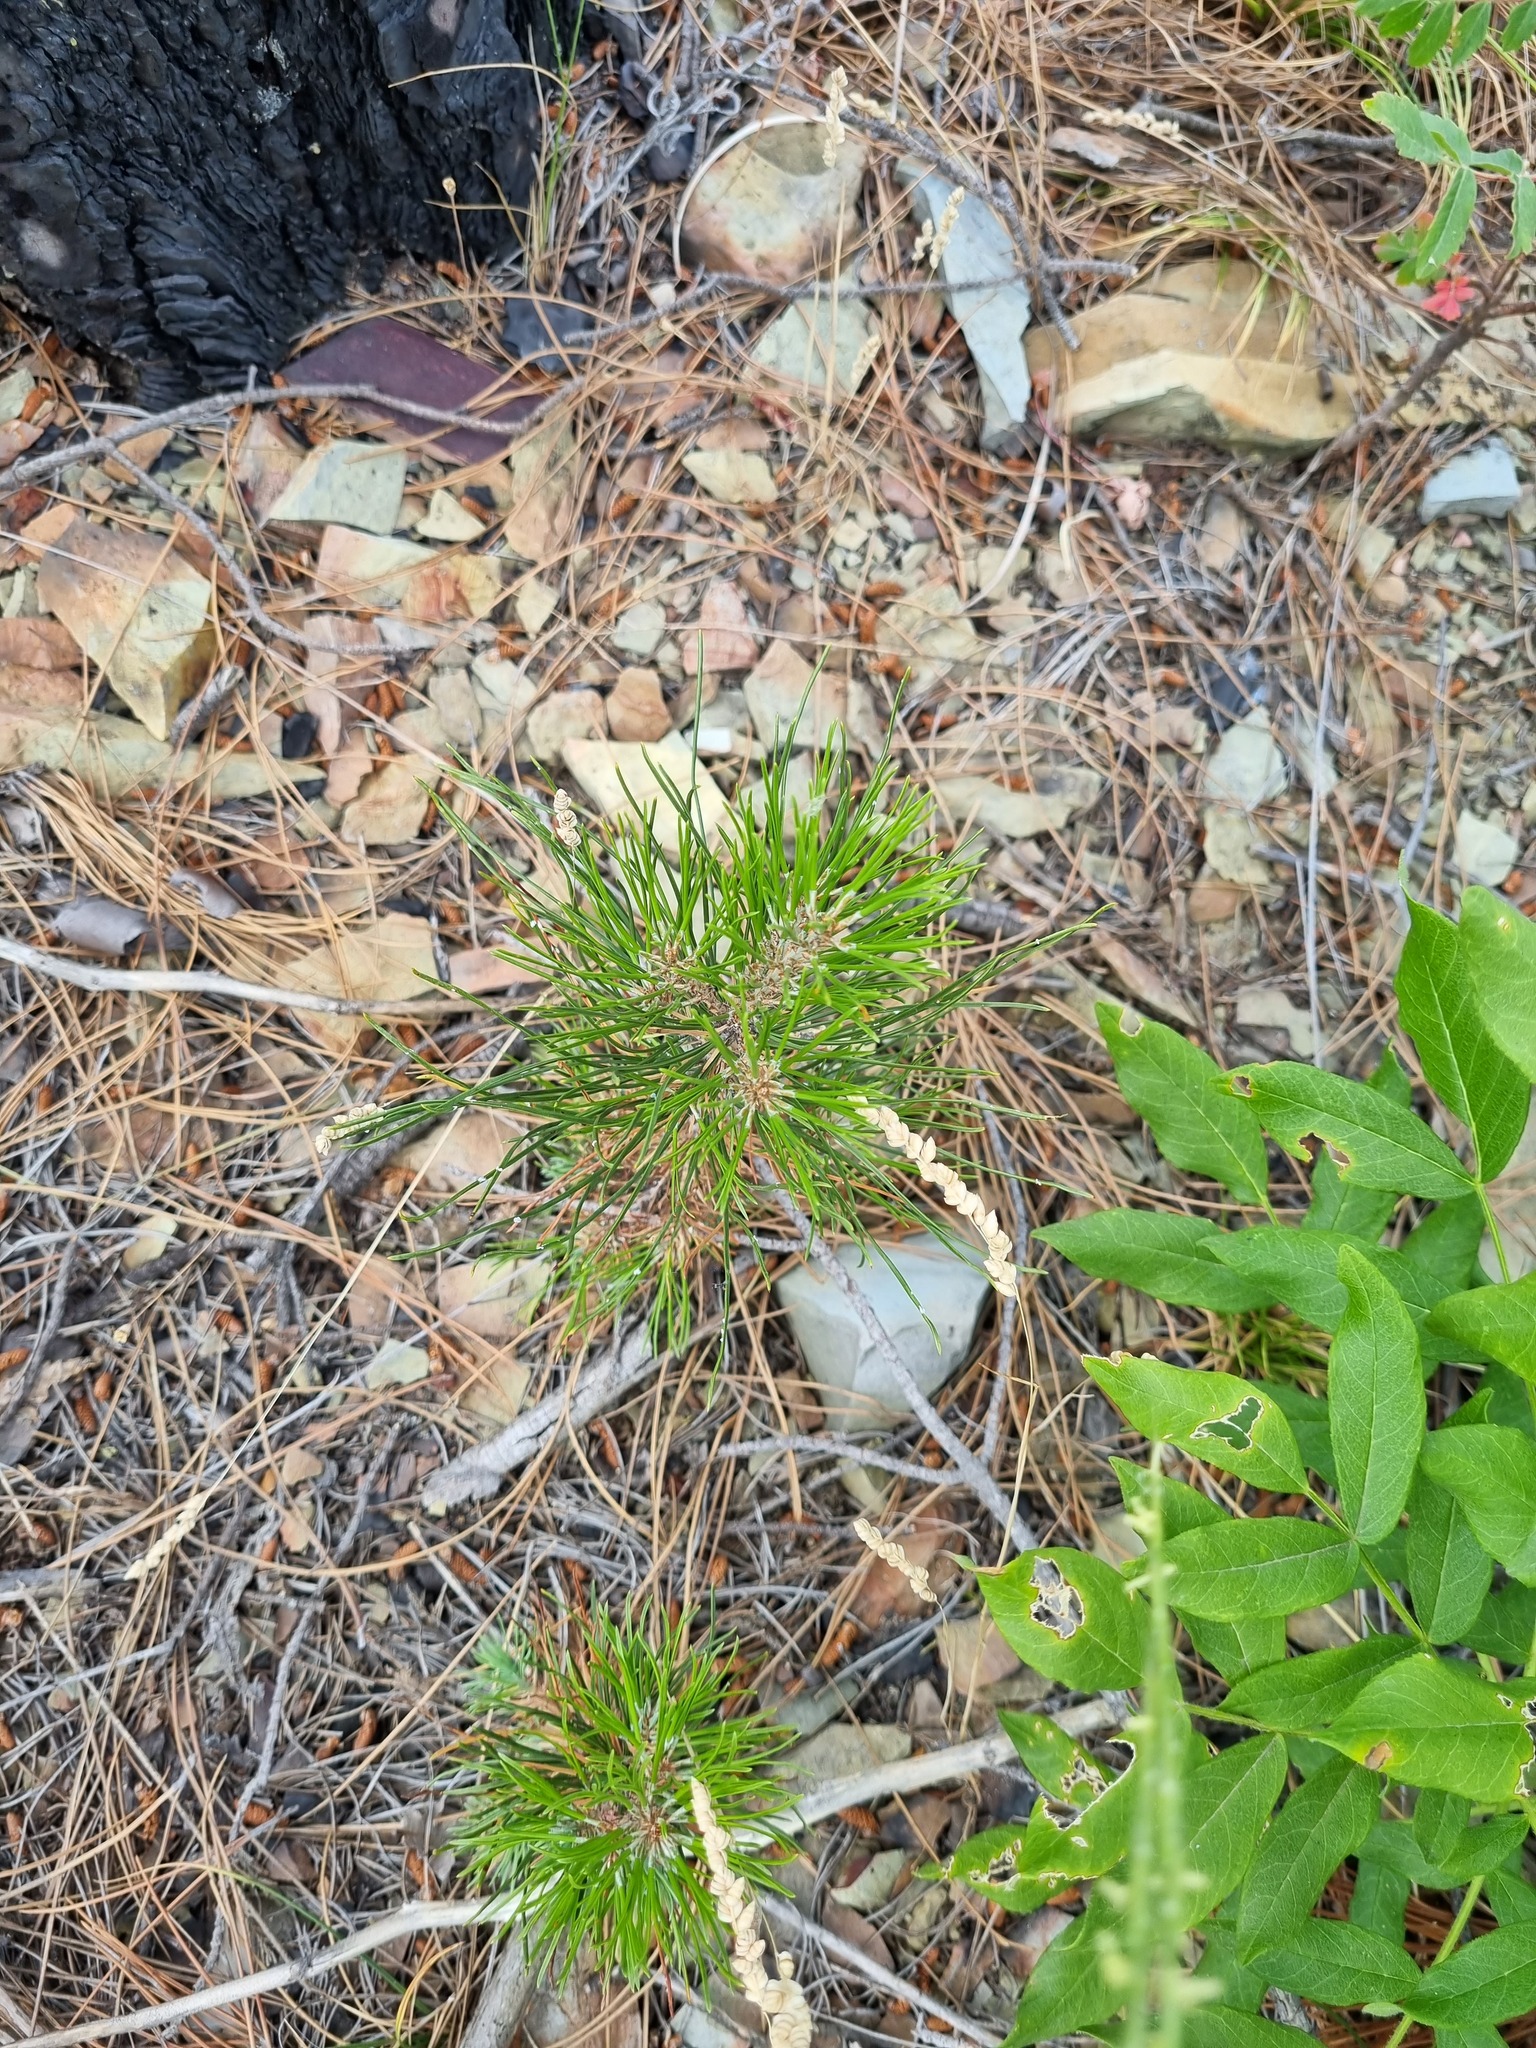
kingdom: Plantae
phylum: Tracheophyta
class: Pinopsida
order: Pinales
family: Pinaceae
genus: Pinus
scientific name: Pinus brutia
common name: Turkish pine
